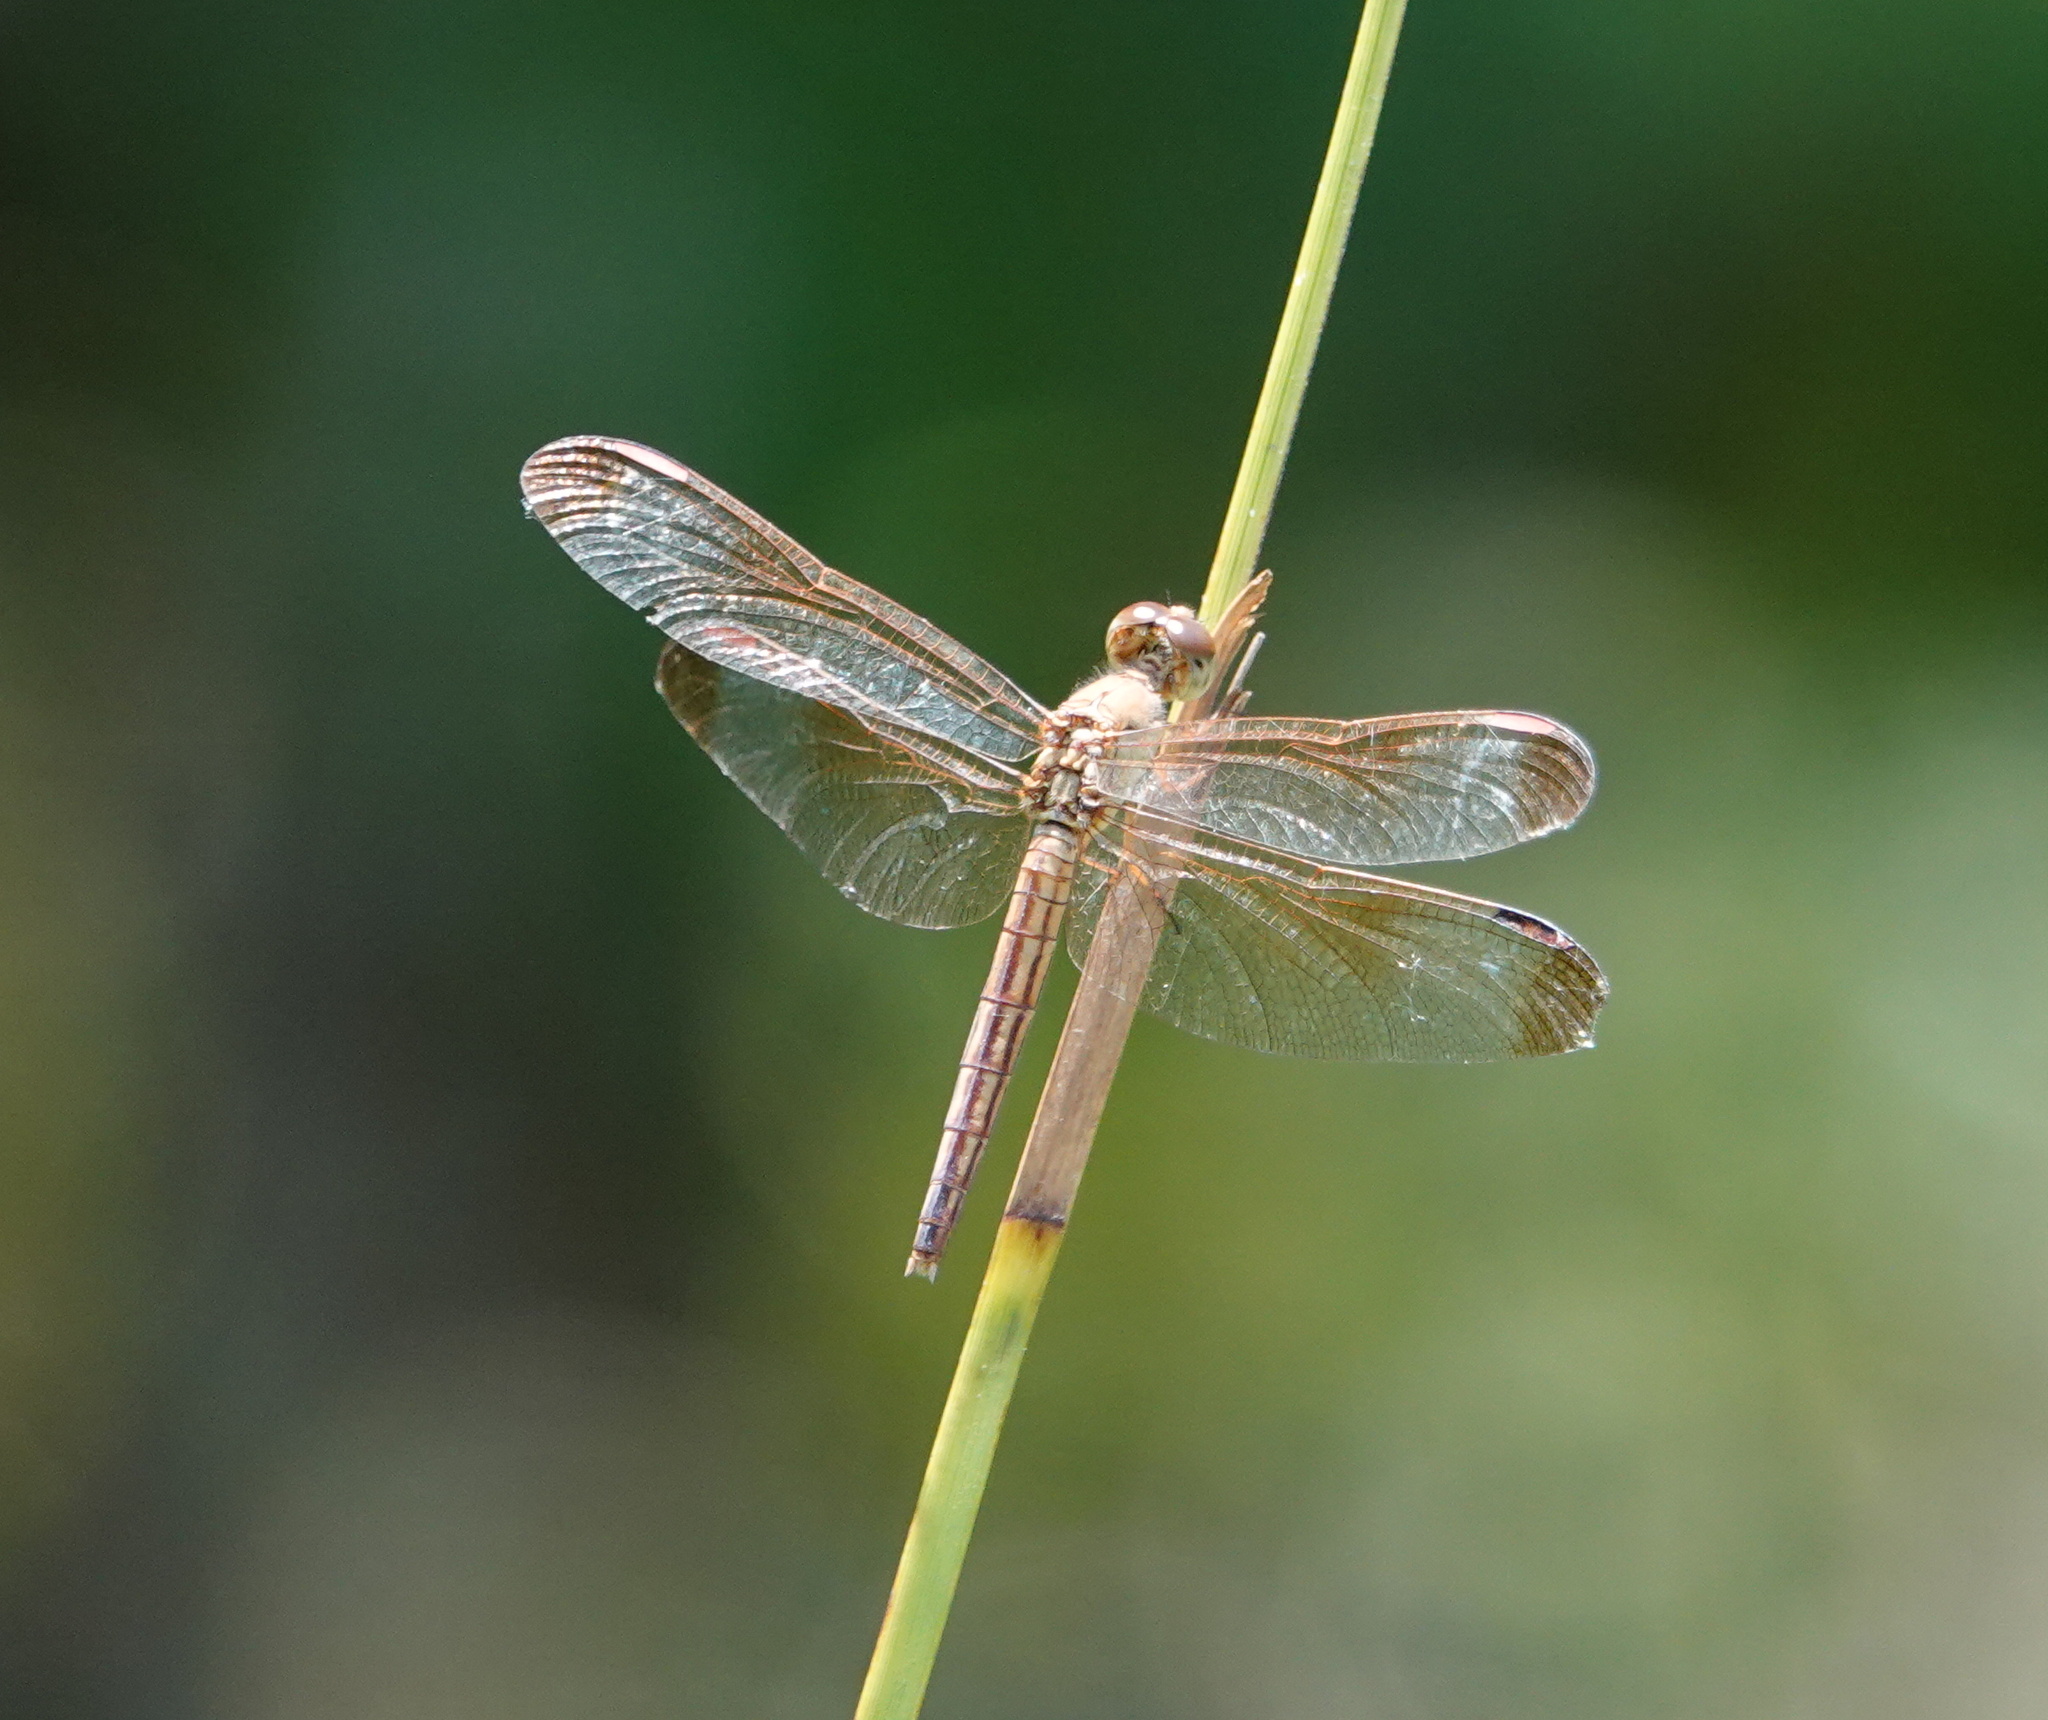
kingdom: Animalia
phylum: Arthropoda
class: Insecta
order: Odonata
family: Libellulidae
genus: Neurothemis
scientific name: Neurothemis stigmatizans
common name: Painted grasshawk
